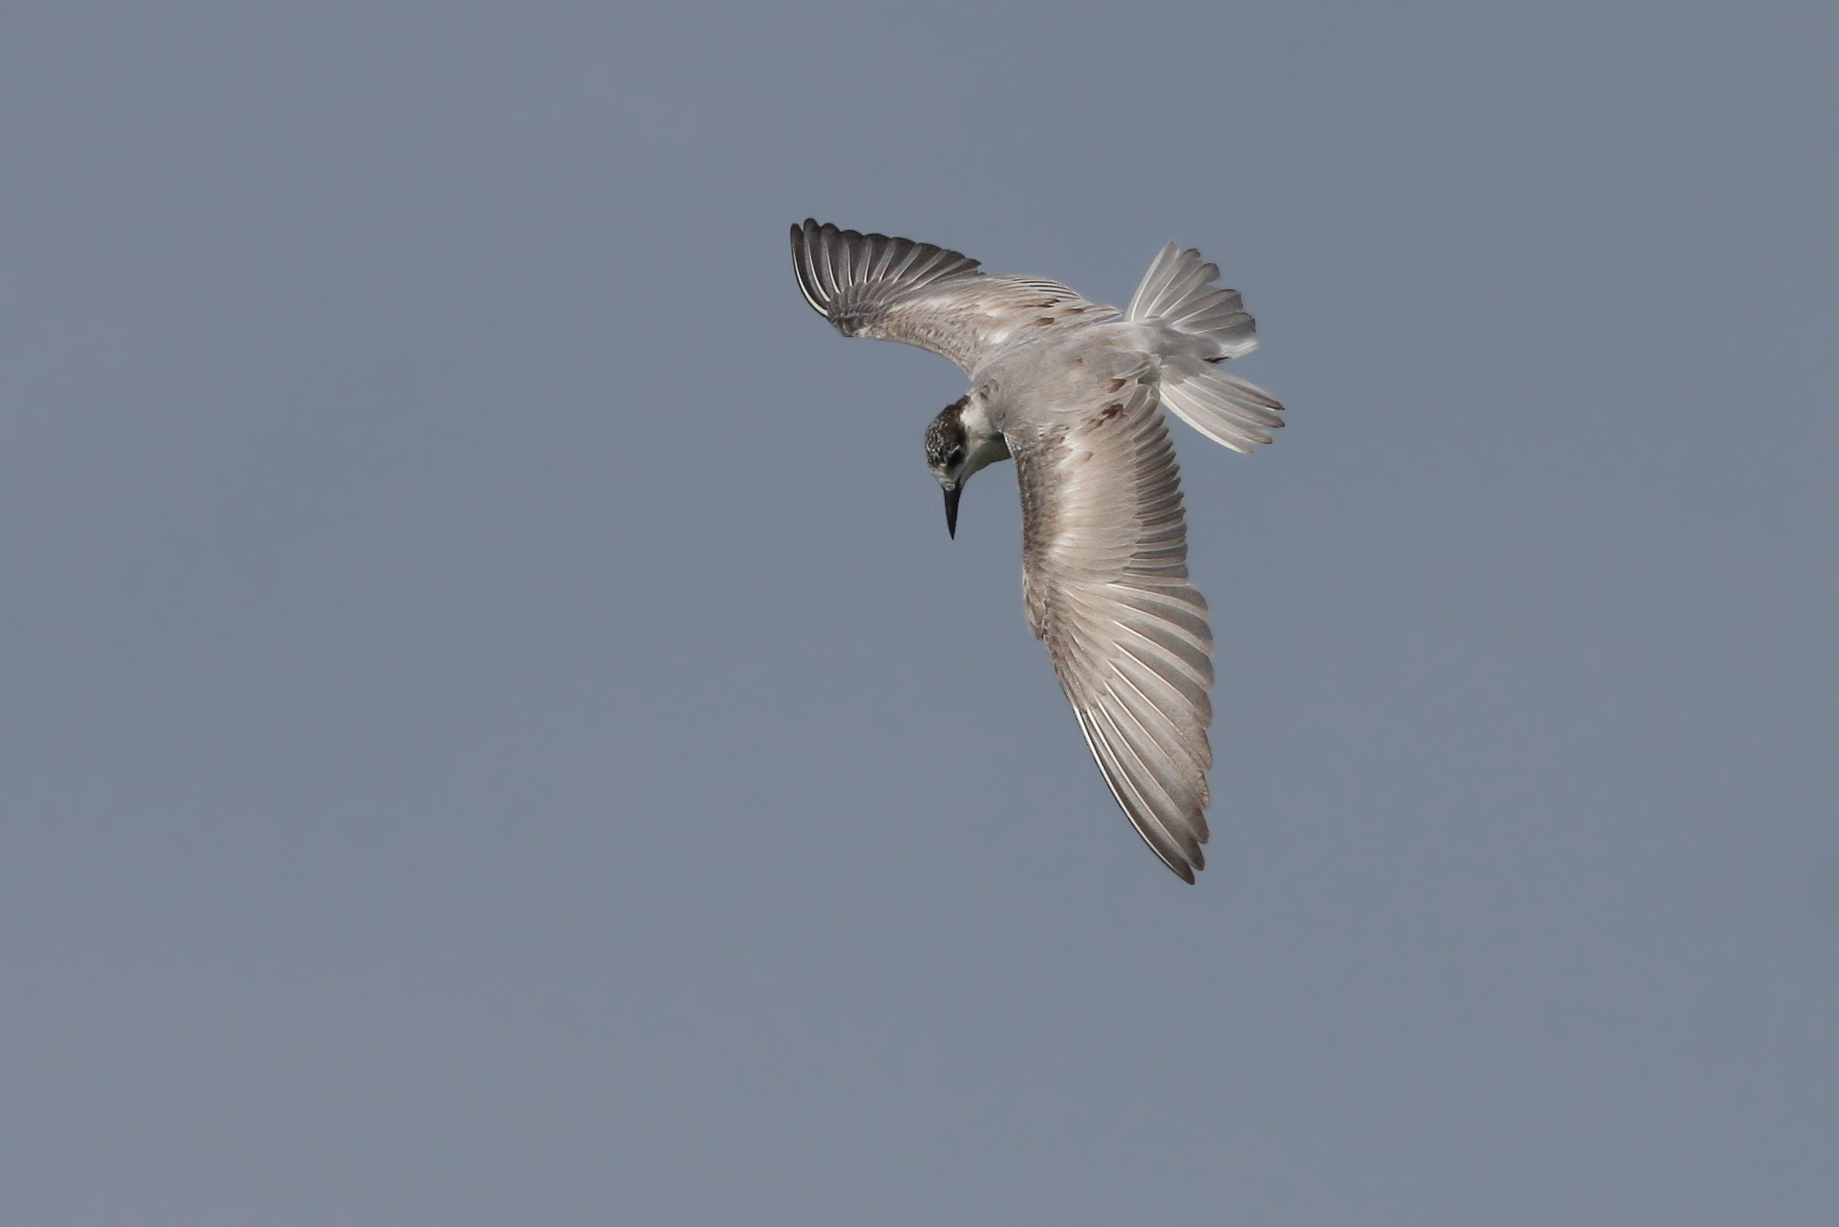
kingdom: Animalia
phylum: Chordata
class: Aves
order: Charadriiformes
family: Laridae
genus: Chlidonias
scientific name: Chlidonias hybrida
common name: Whiskered tern
